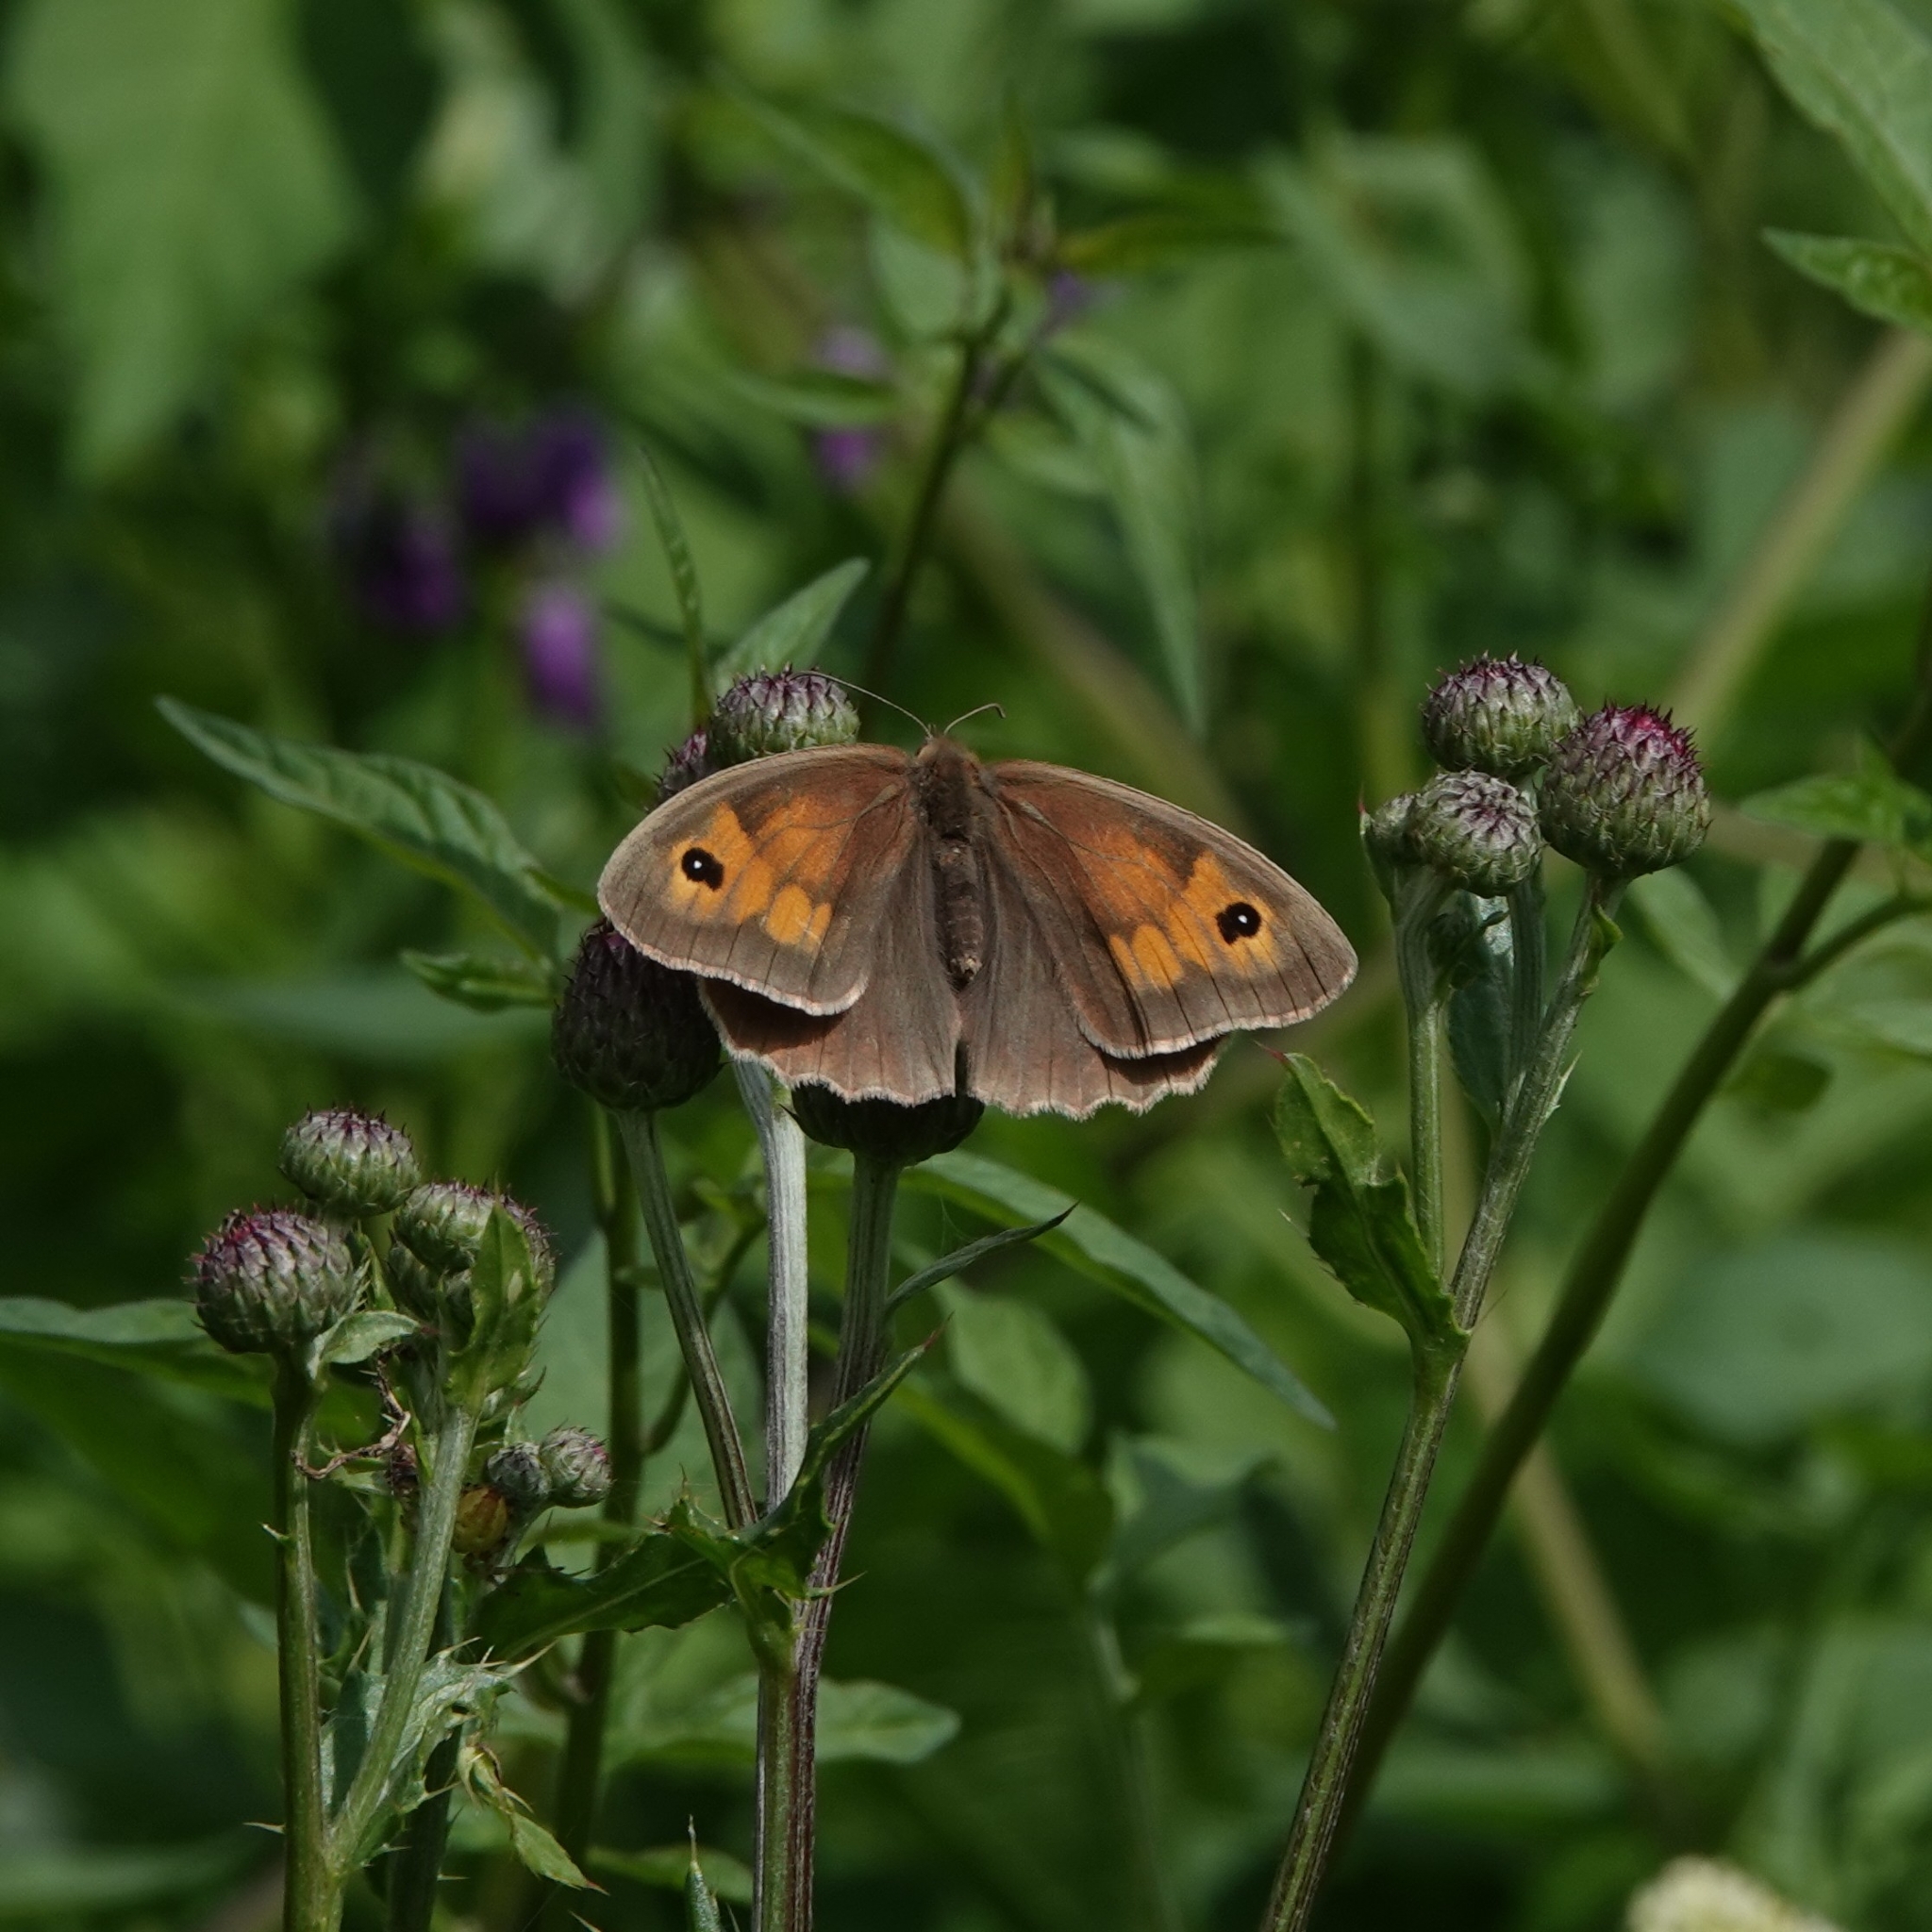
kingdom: Animalia
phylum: Arthropoda
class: Insecta
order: Lepidoptera
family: Nymphalidae
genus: Maniola
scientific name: Maniola jurtina
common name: Meadow brown
